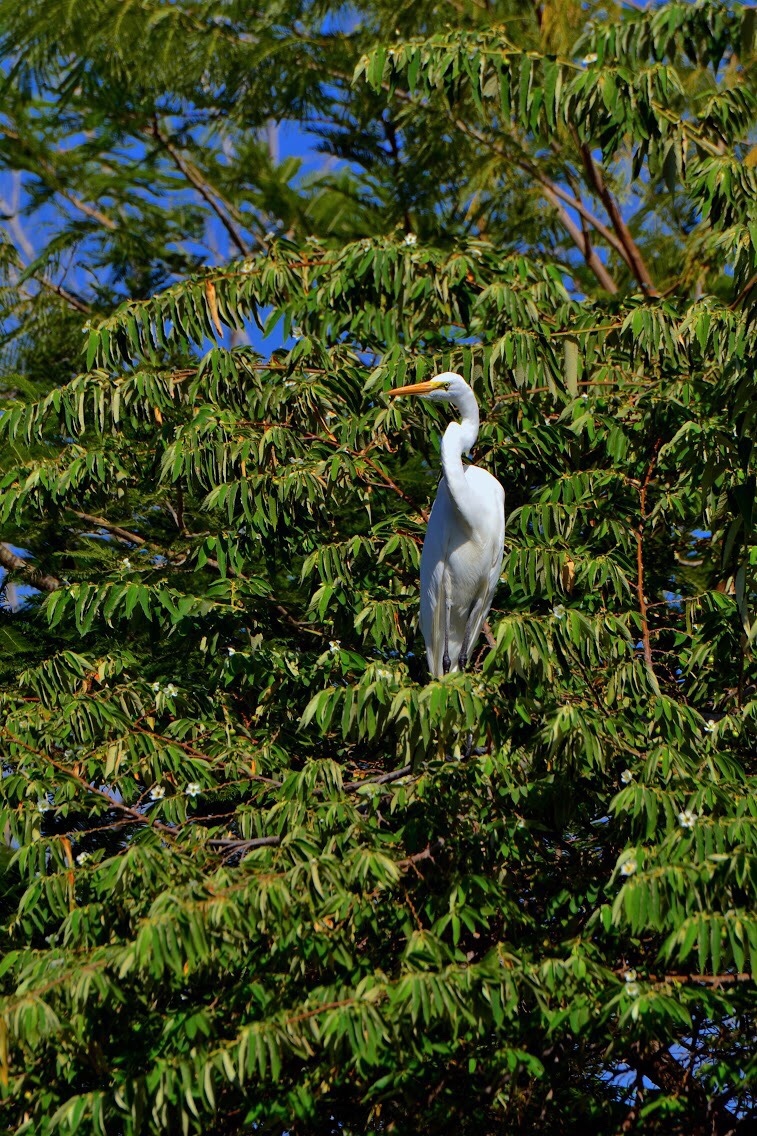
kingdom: Animalia
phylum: Chordata
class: Aves
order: Pelecaniformes
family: Ardeidae
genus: Ardea
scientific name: Ardea alba
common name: Great egret
